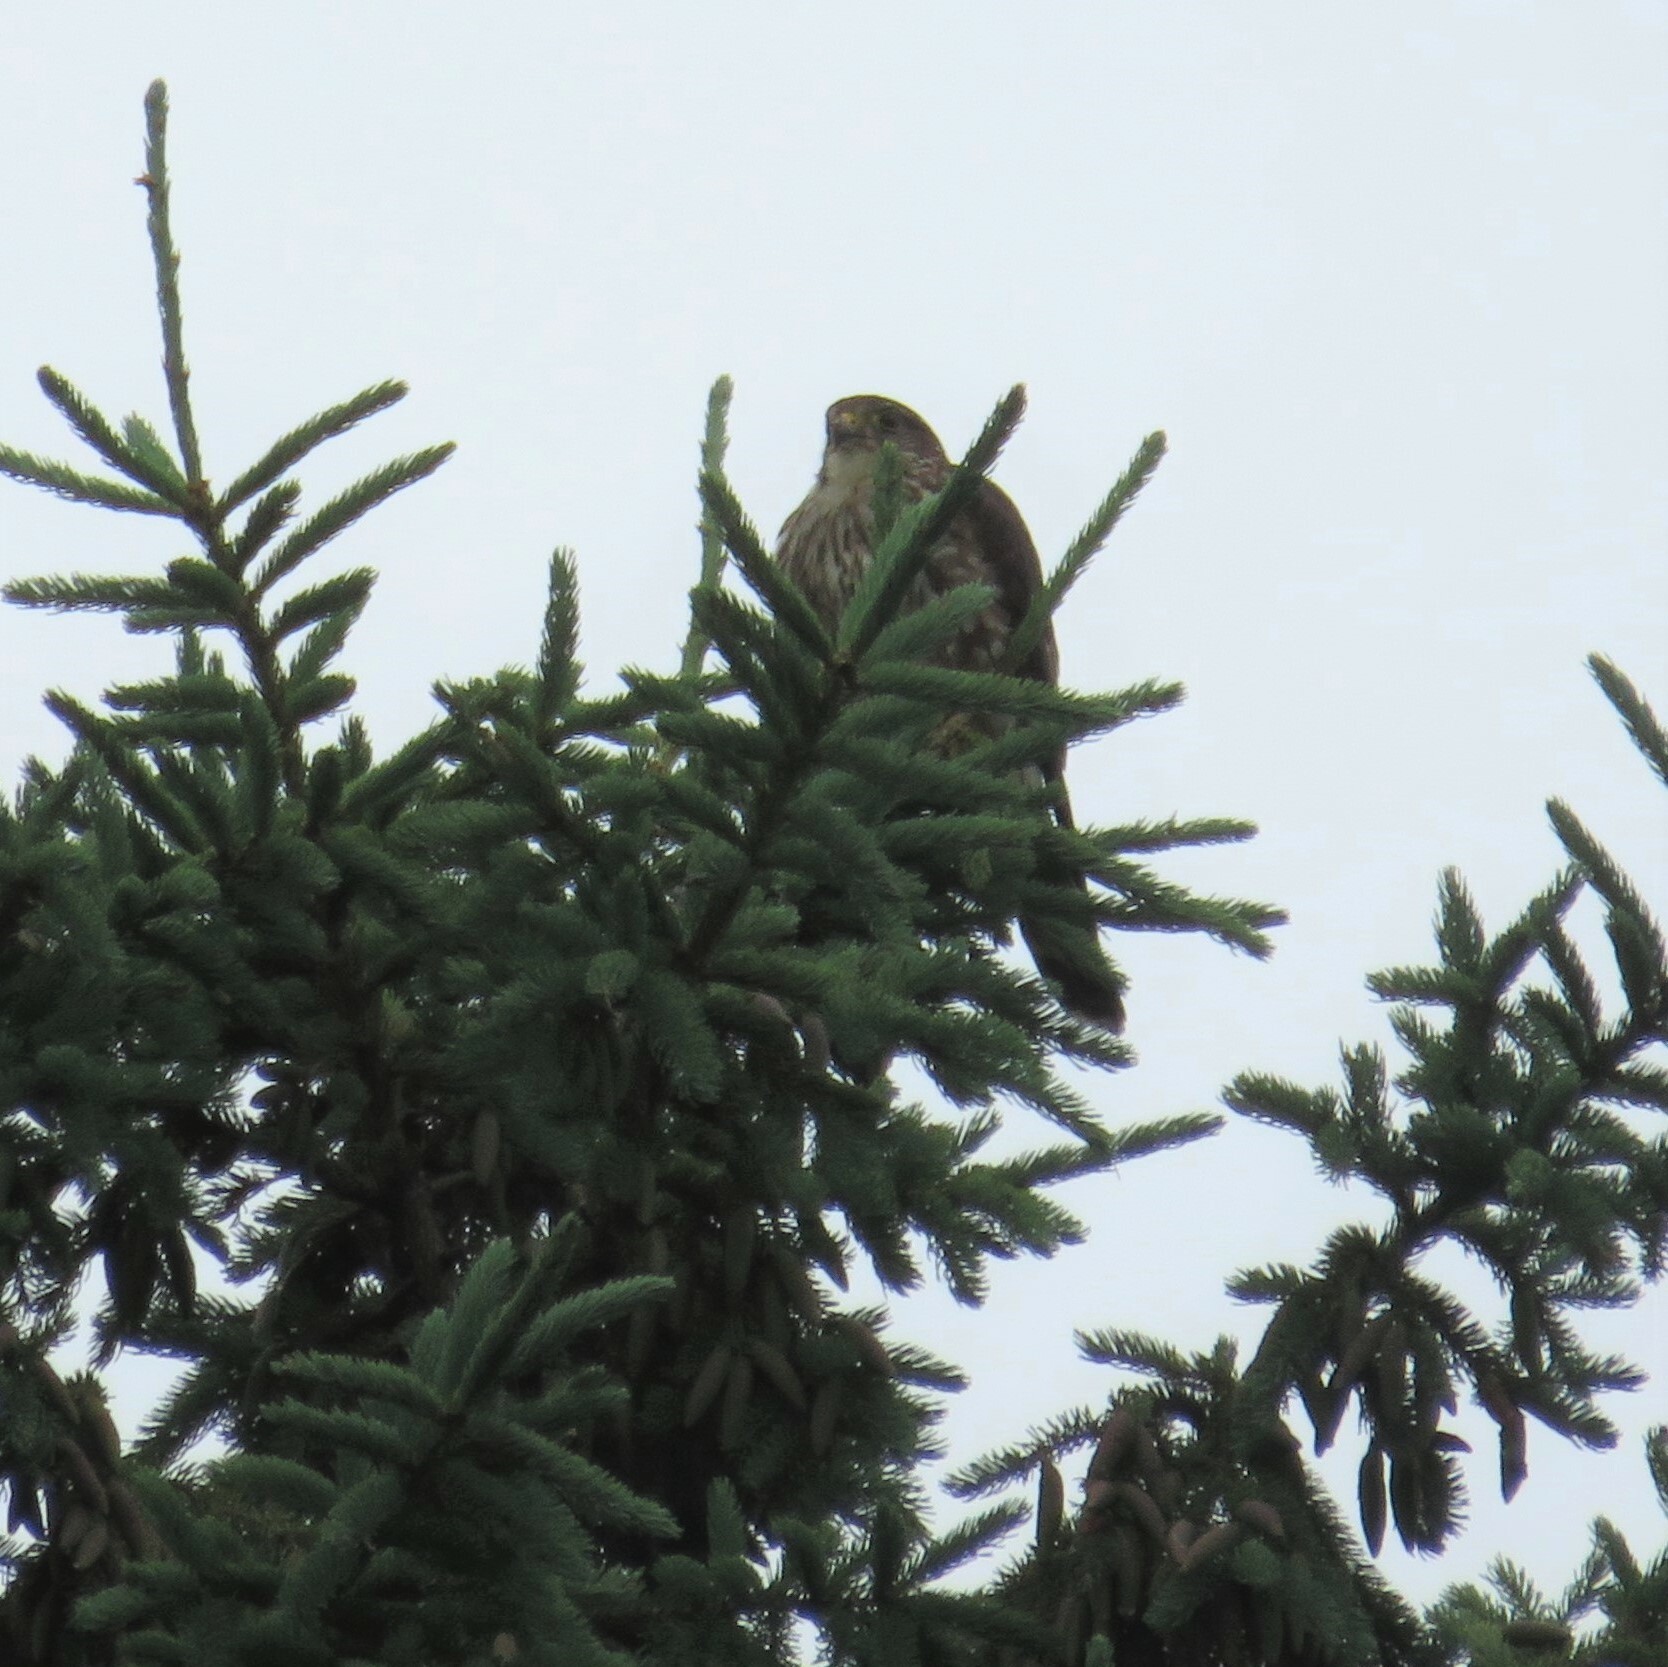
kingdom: Animalia
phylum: Chordata
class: Aves
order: Falconiformes
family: Falconidae
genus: Falco
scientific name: Falco columbarius
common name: Merlin
